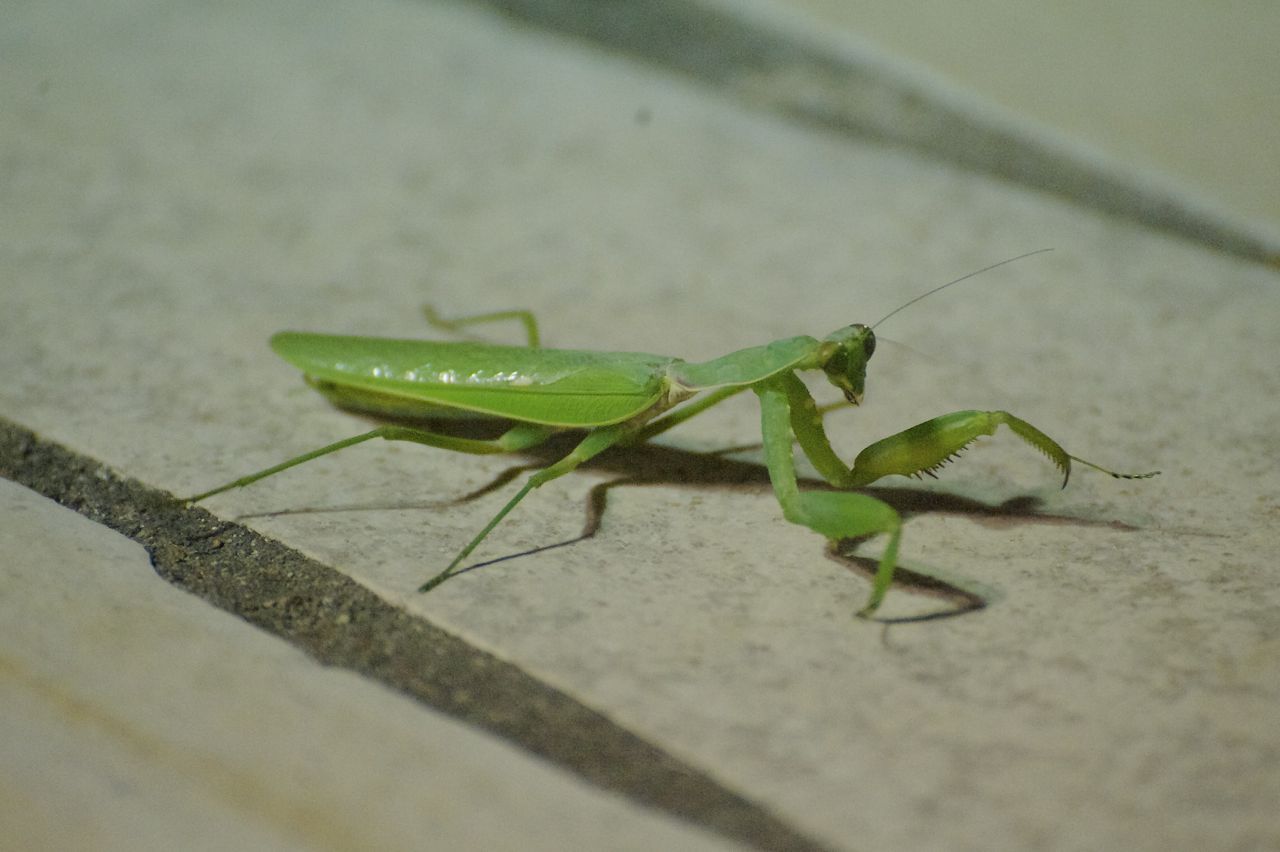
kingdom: Animalia
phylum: Arthropoda
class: Insecta
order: Mantodea
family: Mantidae
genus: Hierodula
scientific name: Hierodula patellifera
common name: Asian mantis
